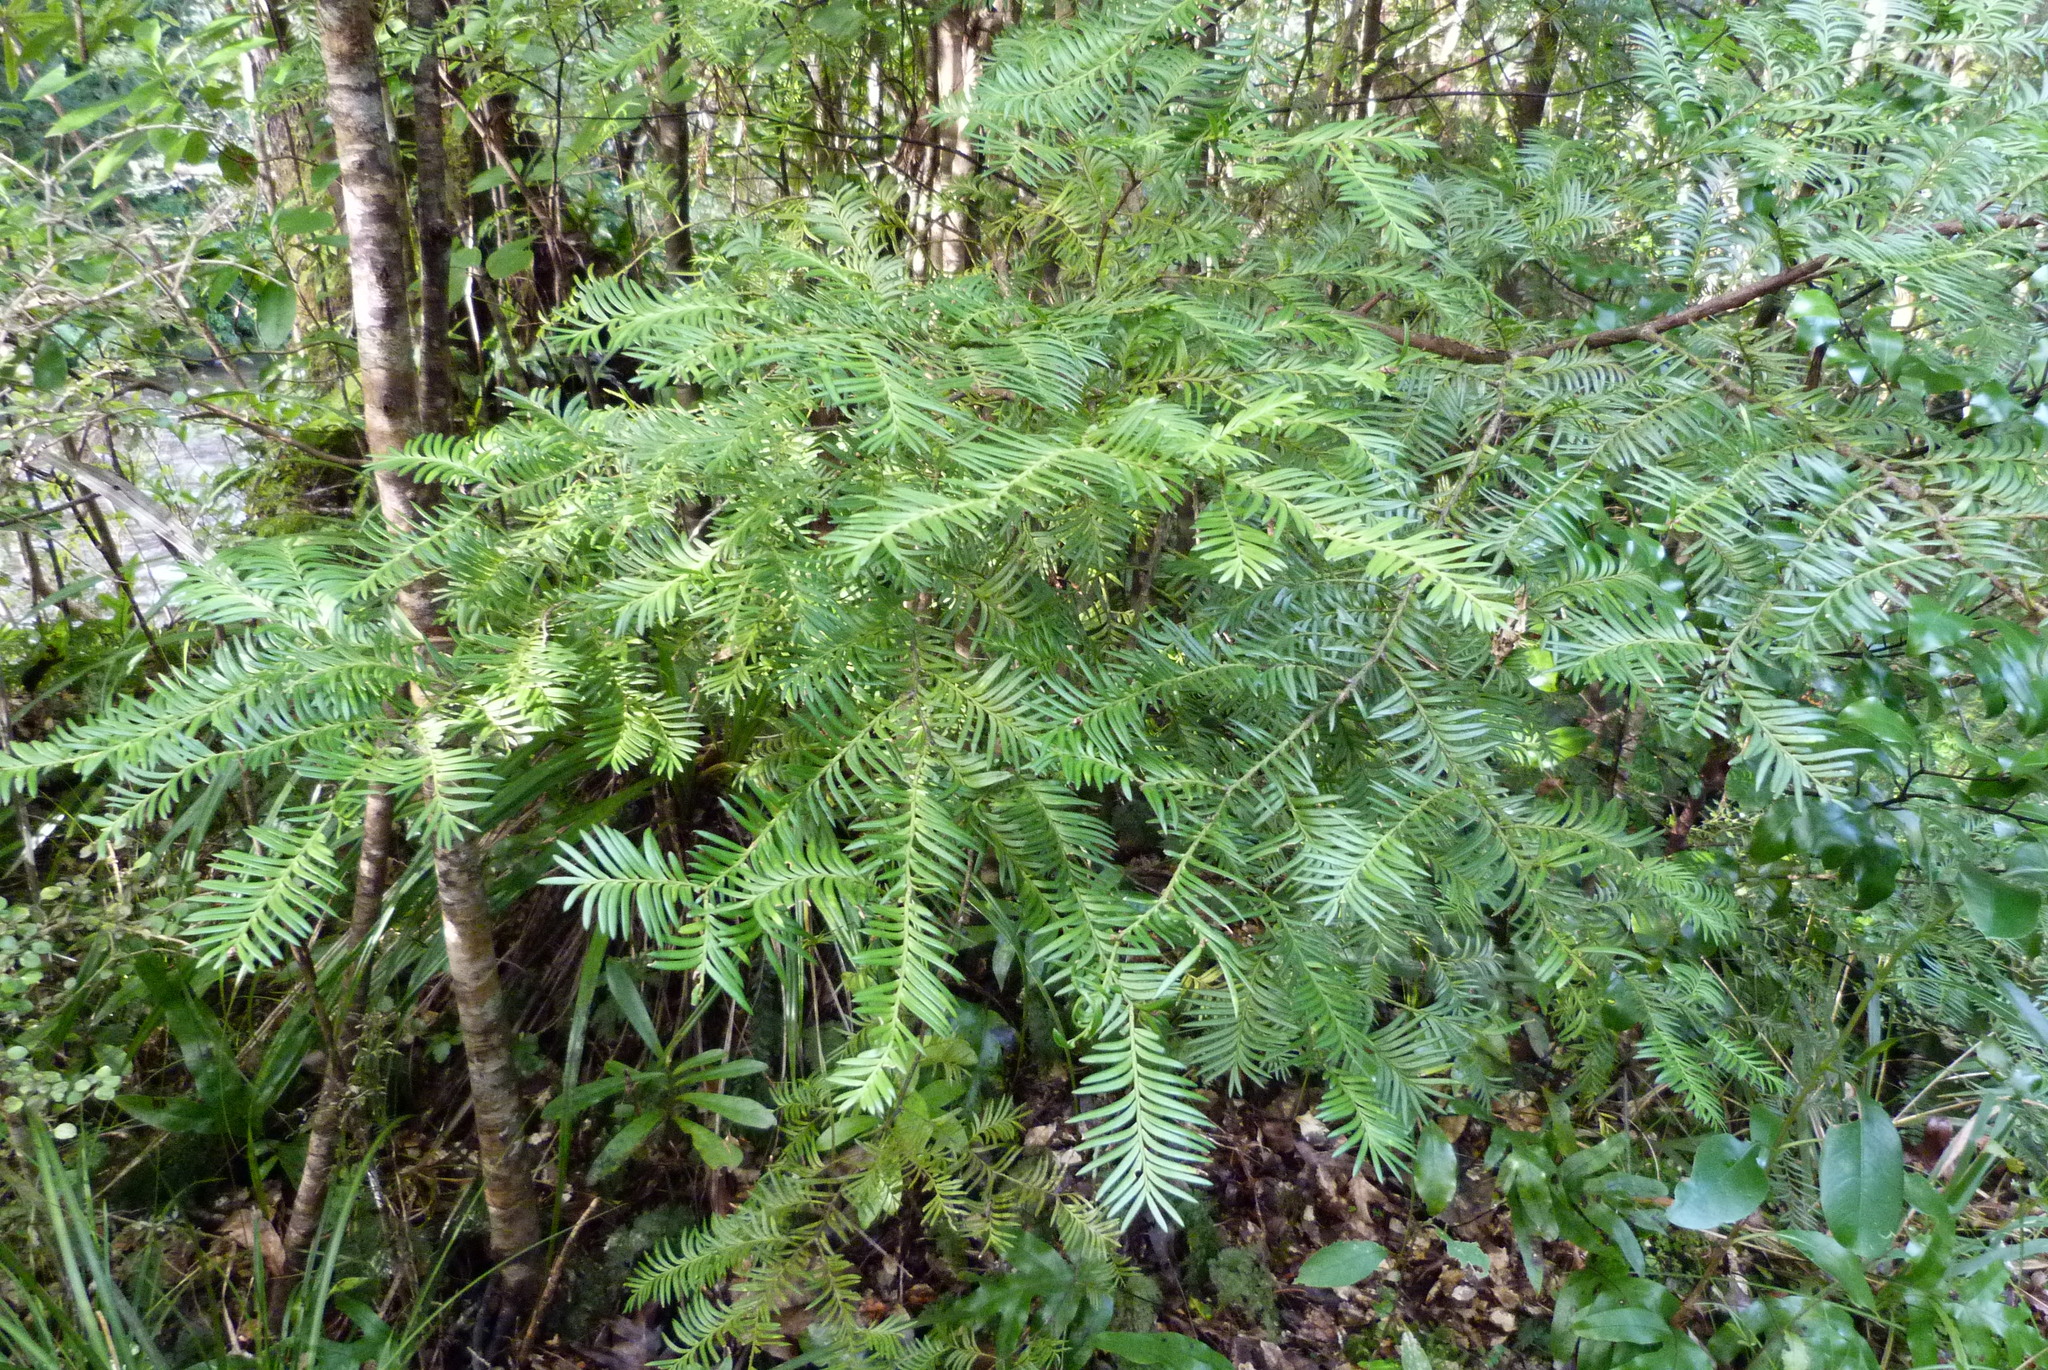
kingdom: Plantae
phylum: Tracheophyta
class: Pinopsida
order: Pinales
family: Podocarpaceae
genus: Prumnopitys
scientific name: Prumnopitys ferruginea
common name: Brown pine
